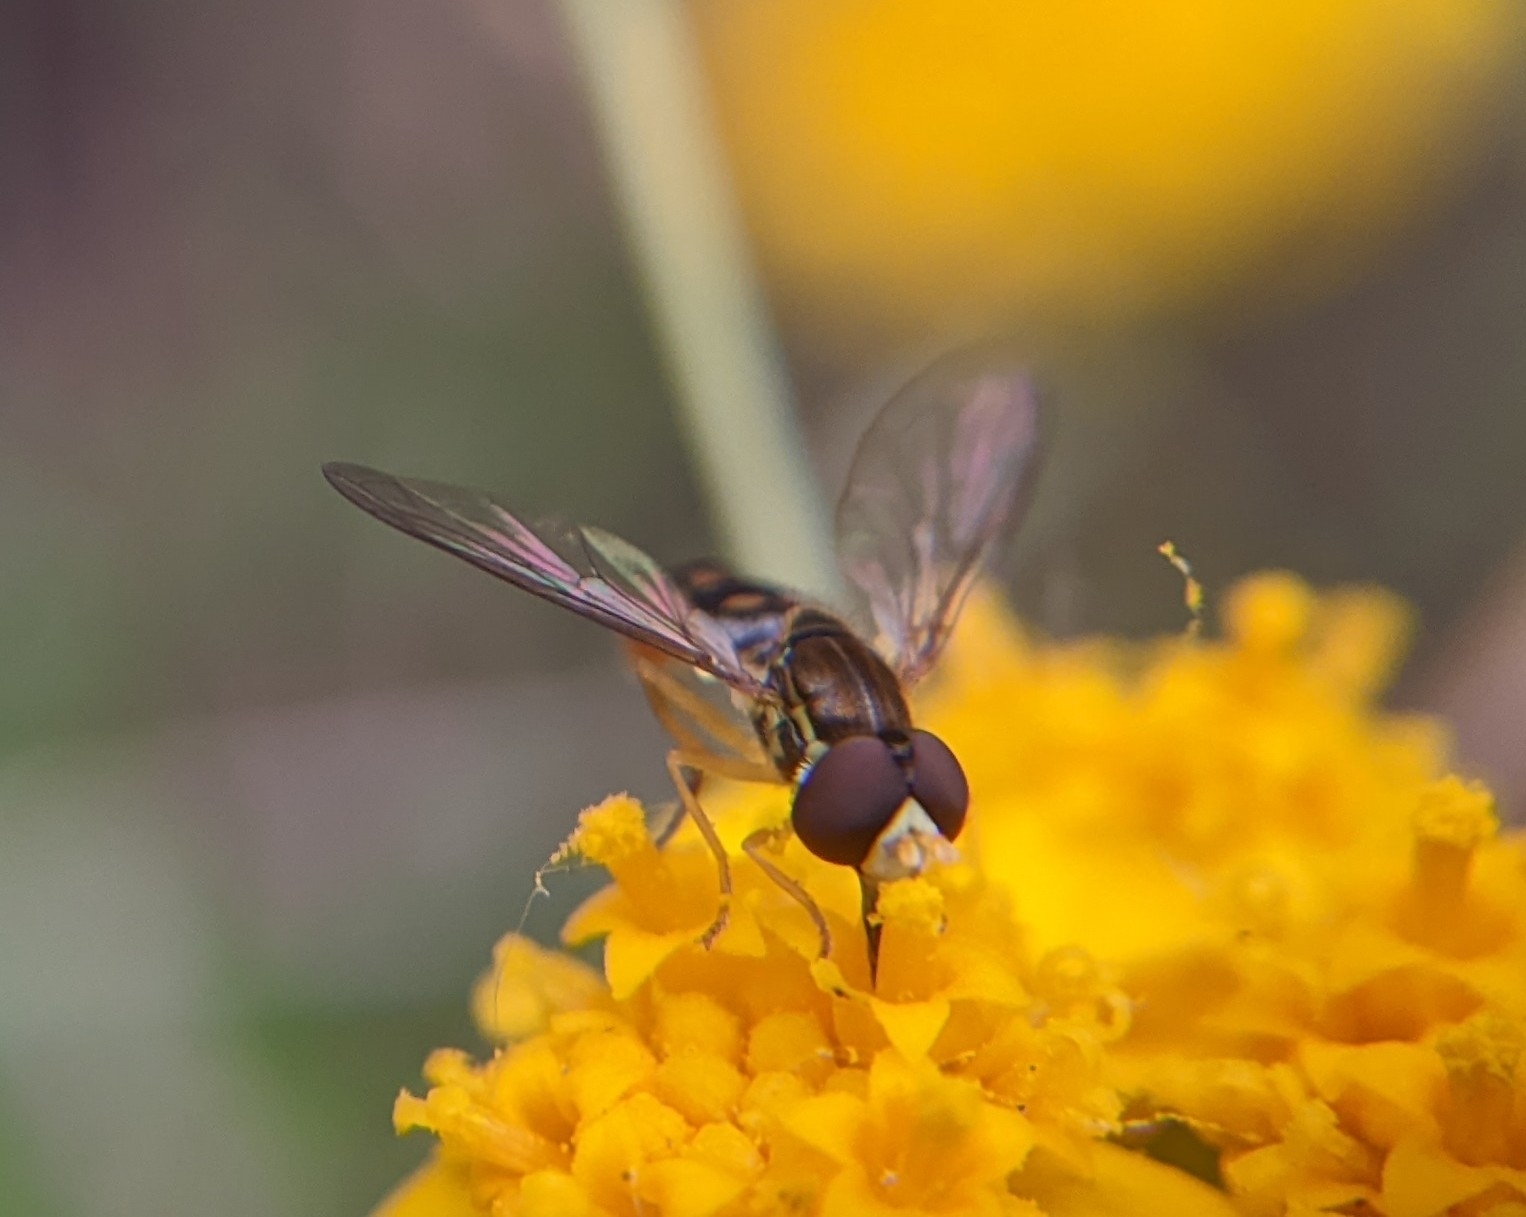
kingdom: Animalia
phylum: Arthropoda
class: Insecta
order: Diptera
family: Syrphidae
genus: Toxomerus
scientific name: Toxomerus marginatus
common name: Syrphid fly
